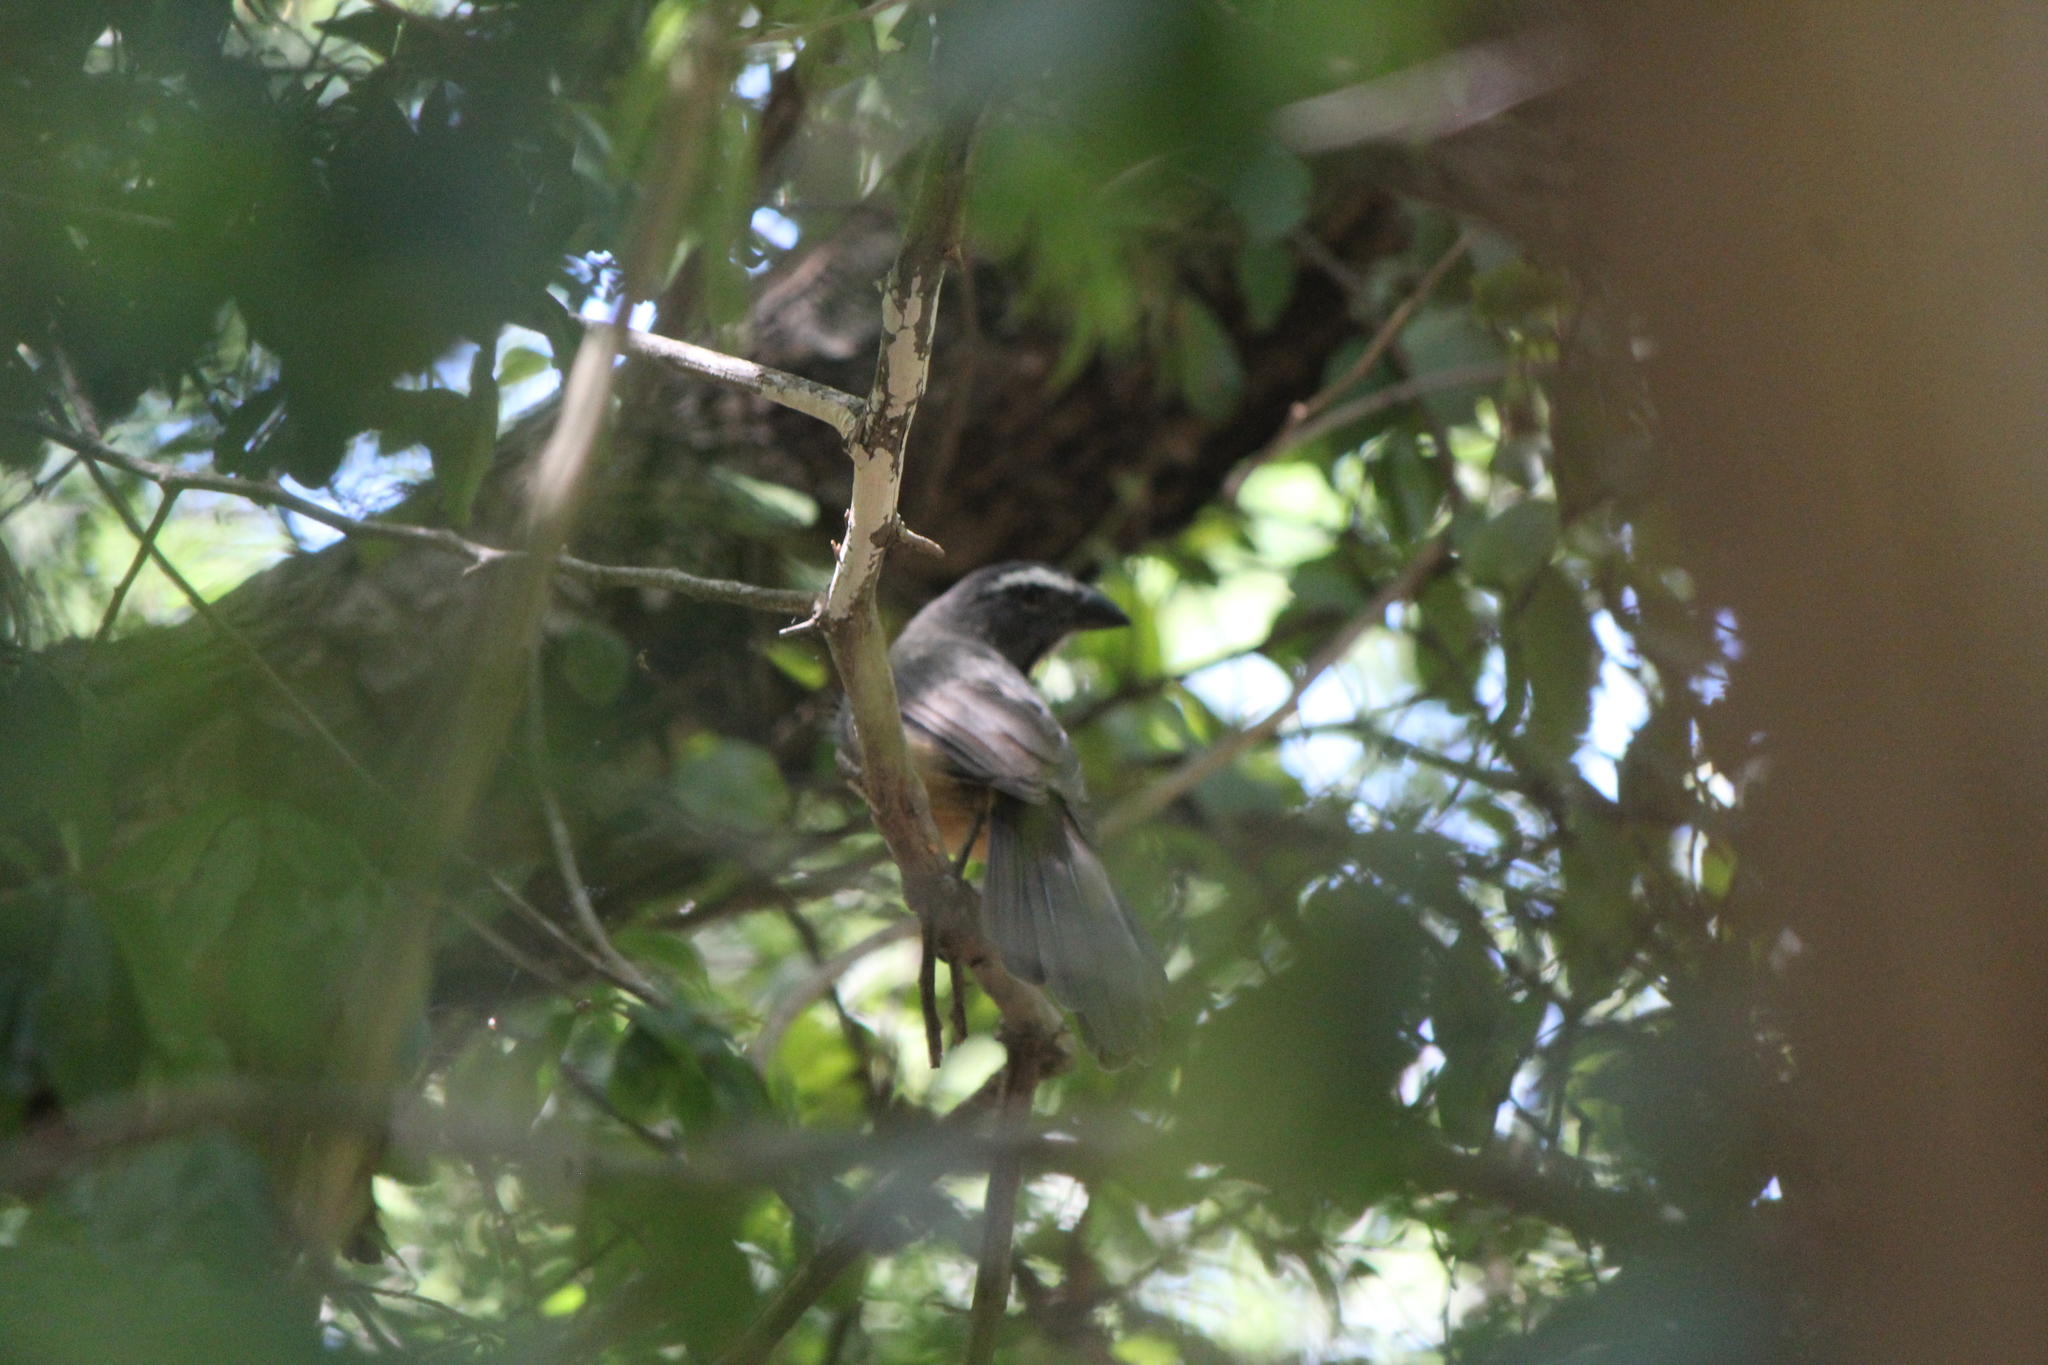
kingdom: Animalia
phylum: Chordata
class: Aves
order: Passeriformes
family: Thraupidae
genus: Saltator
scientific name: Saltator grandis
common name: Cinnamon-bellied saltator
